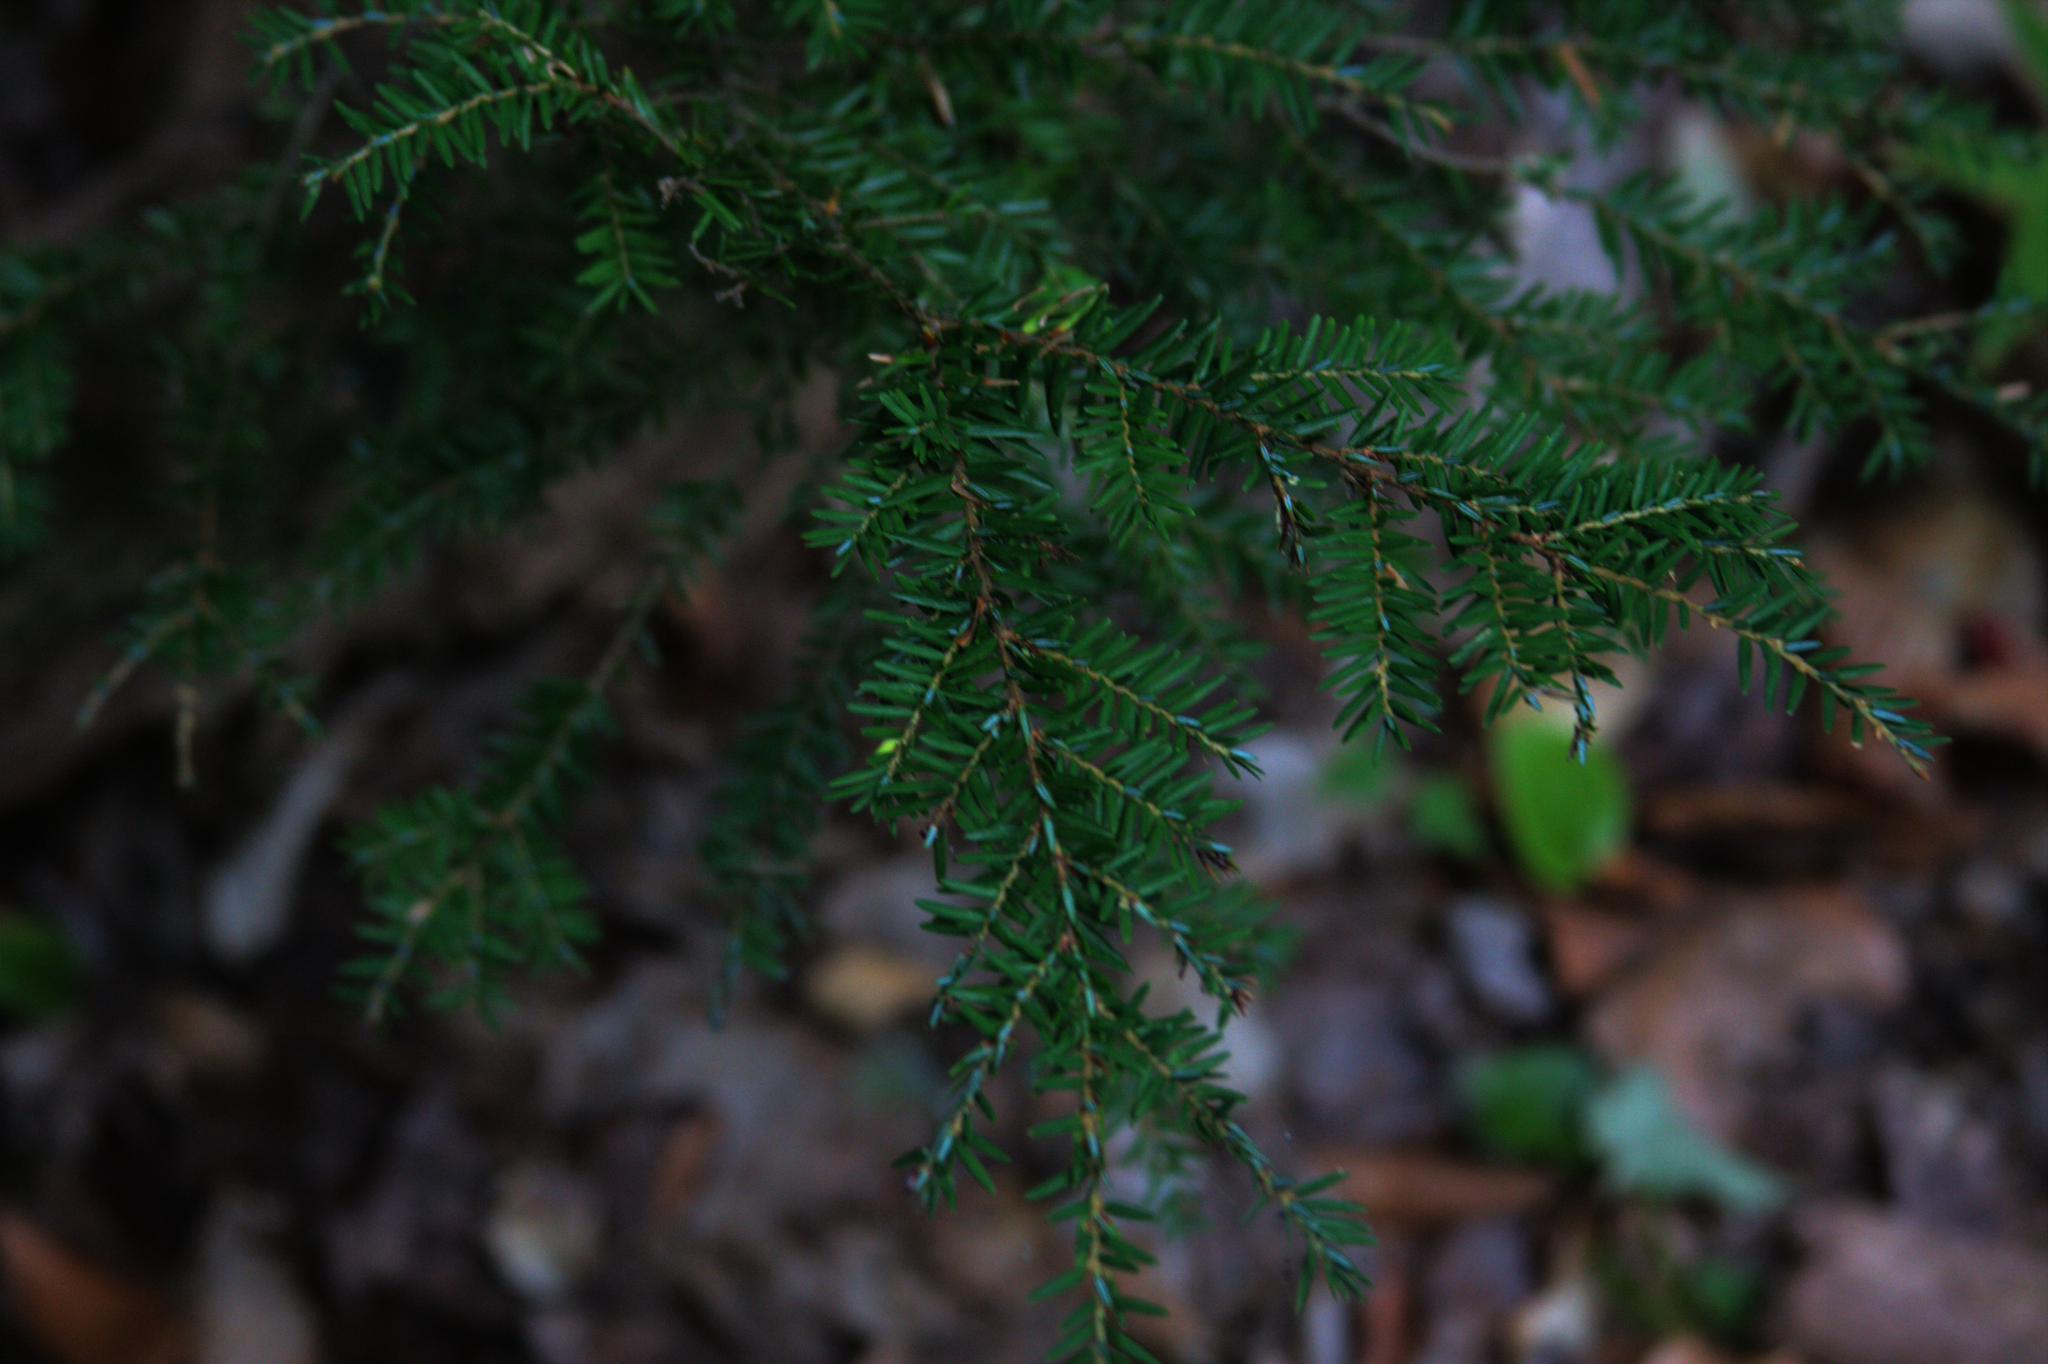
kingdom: Plantae
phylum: Tracheophyta
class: Pinopsida
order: Pinales
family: Pinaceae
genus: Tsuga
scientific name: Tsuga canadensis
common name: Eastern hemlock
